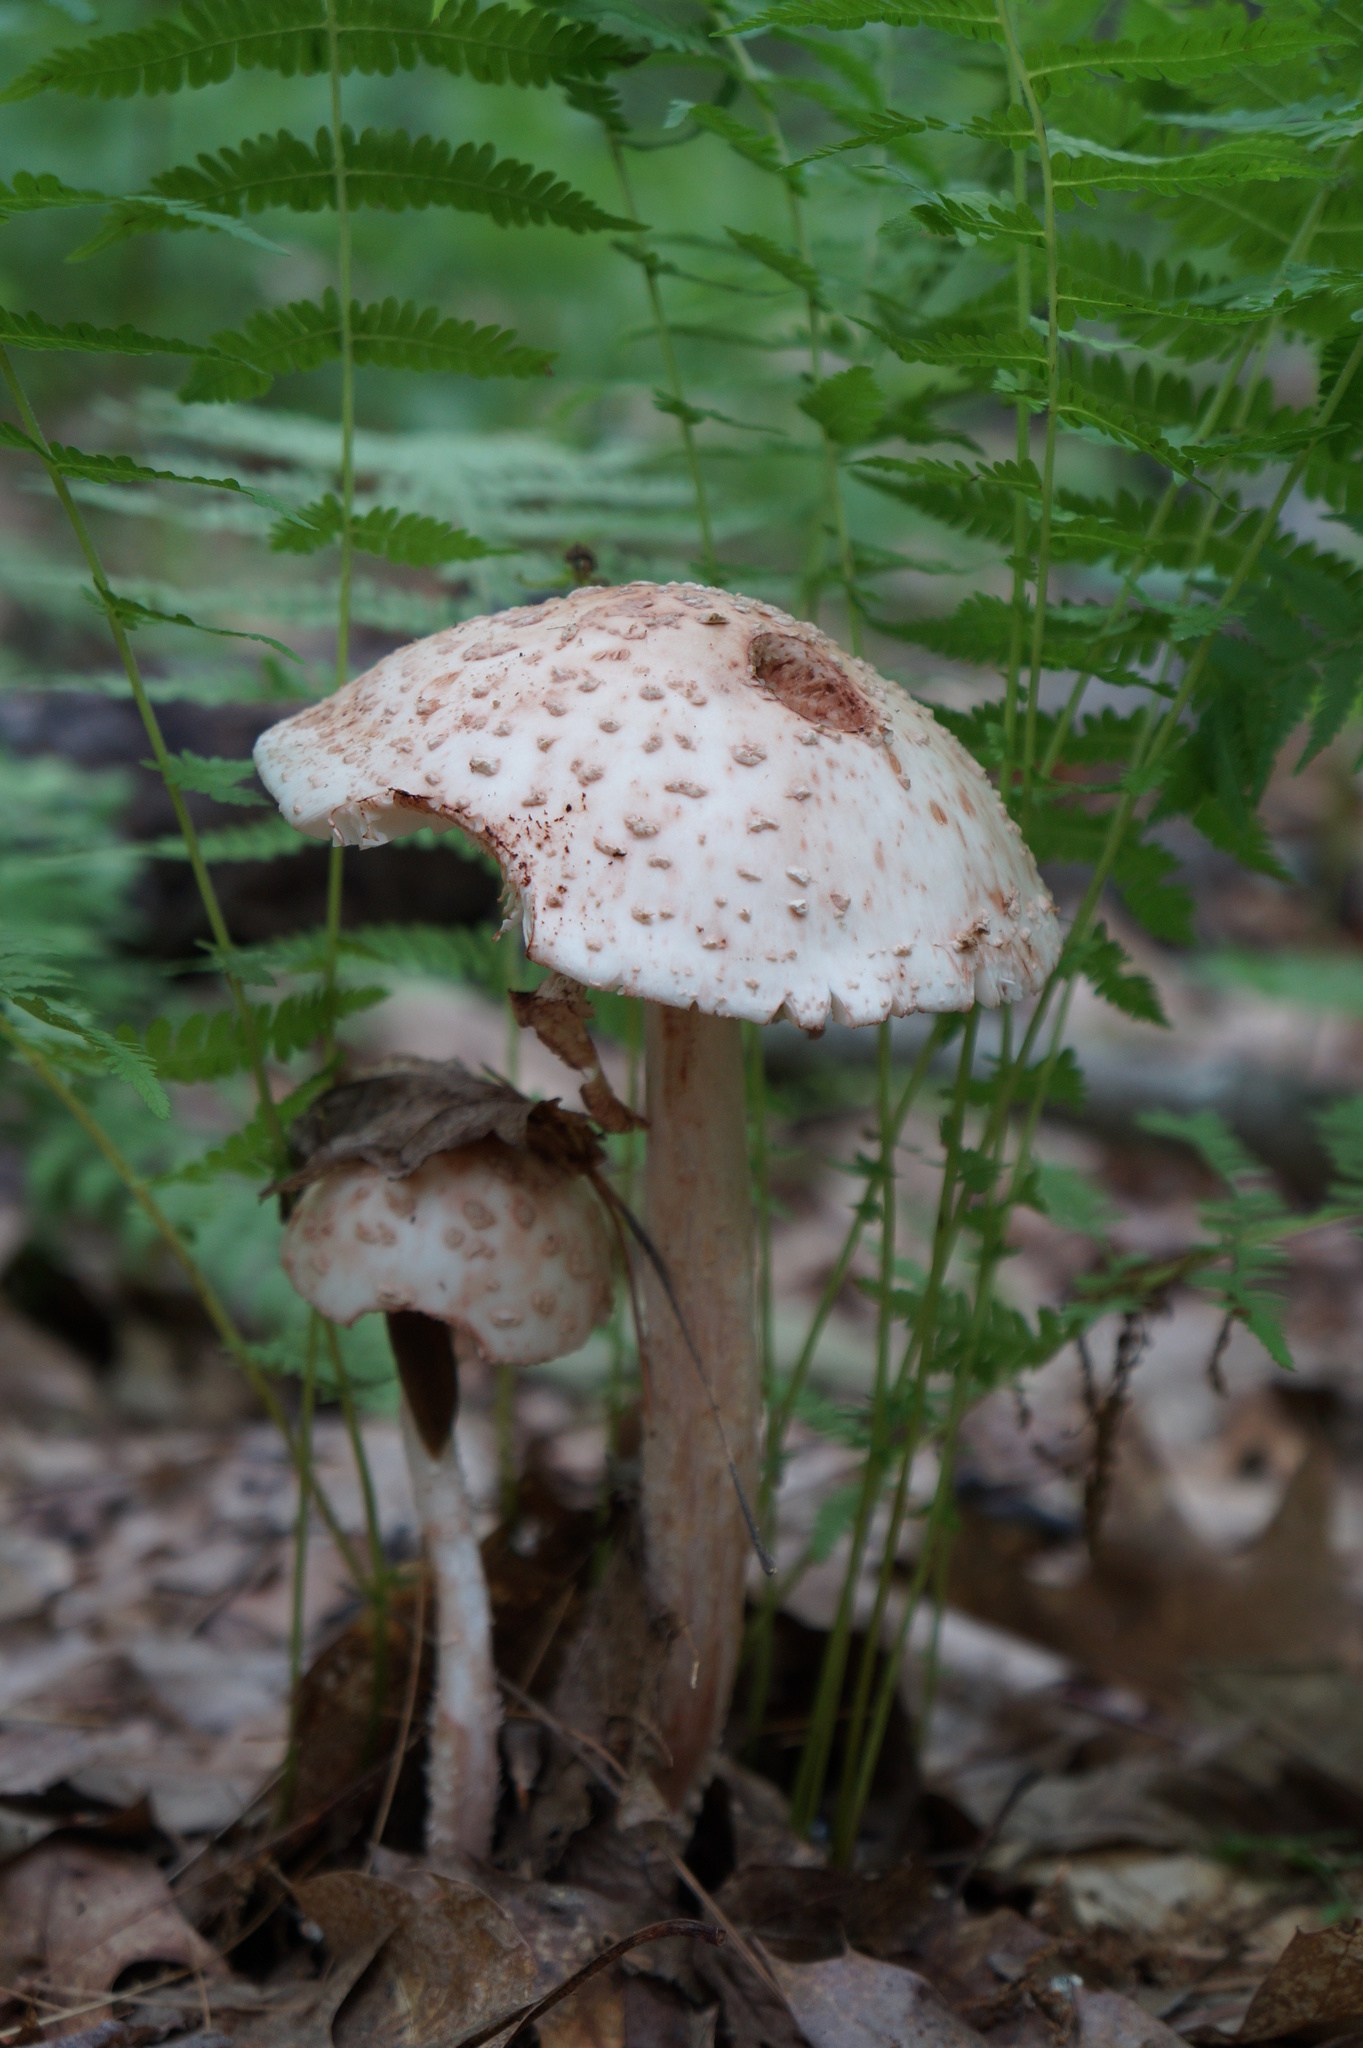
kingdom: Fungi
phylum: Basidiomycota
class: Agaricomycetes
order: Agaricales
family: Amanitaceae
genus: Amanita
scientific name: Amanita rubescens
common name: Blusher
